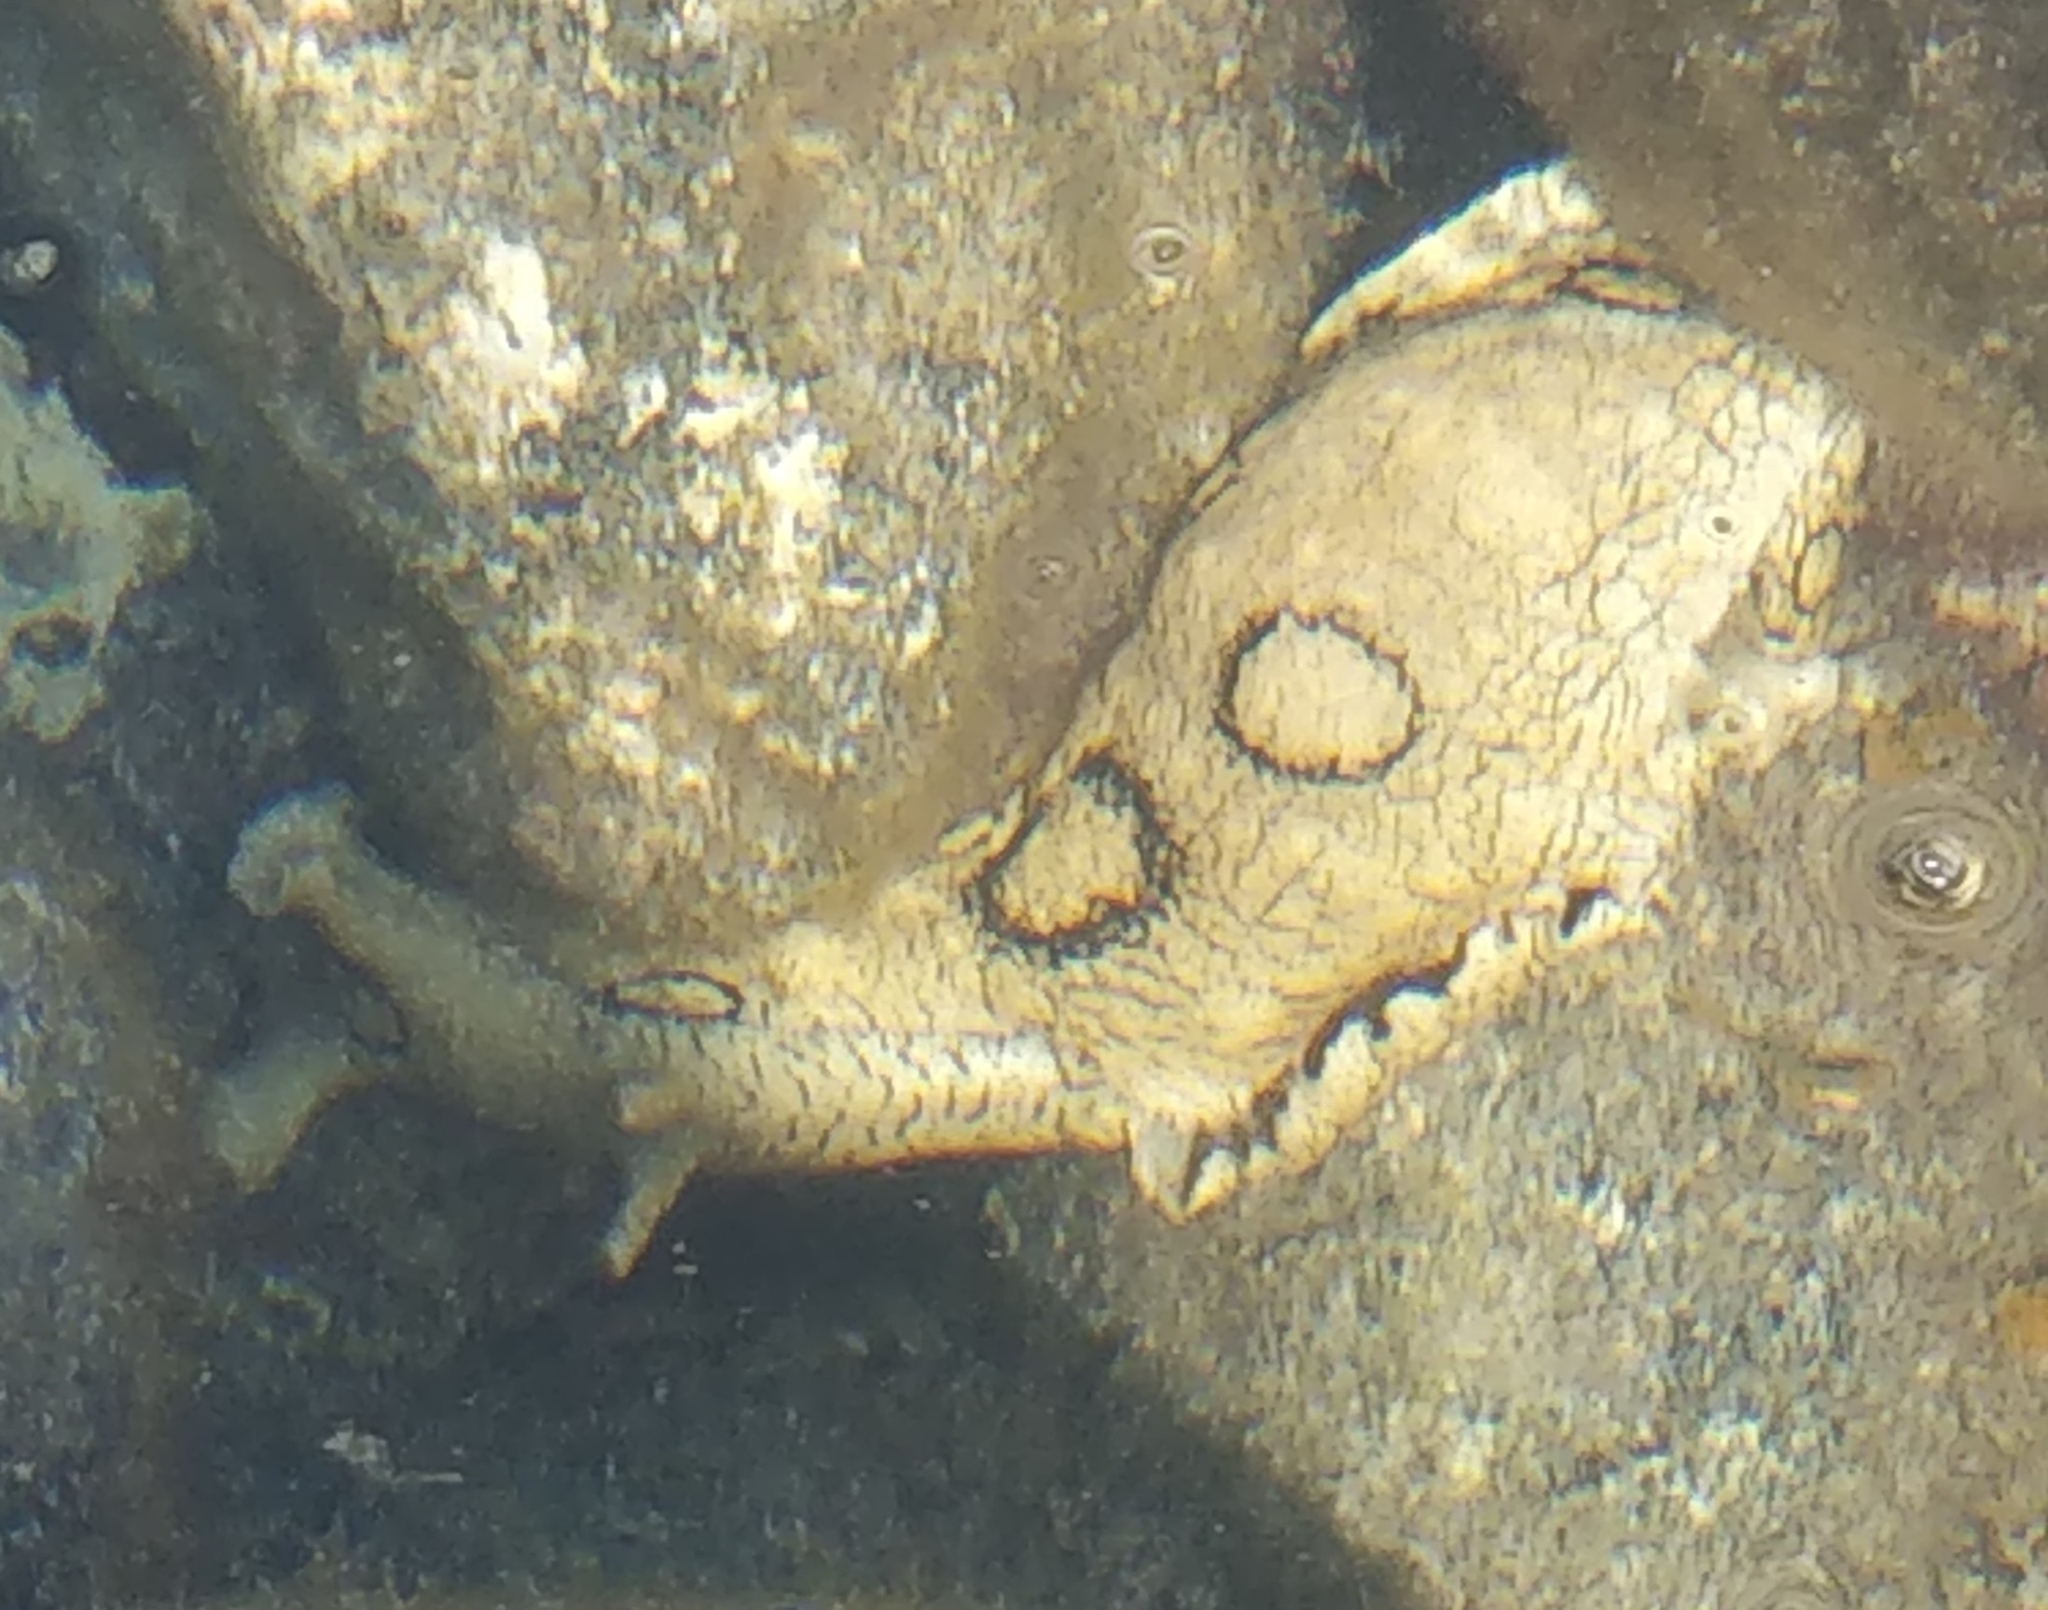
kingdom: Animalia
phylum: Mollusca
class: Gastropoda
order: Aplysiida
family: Aplysiidae
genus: Aplysia
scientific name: Aplysia dactylomela
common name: Large-spotted sea hare
